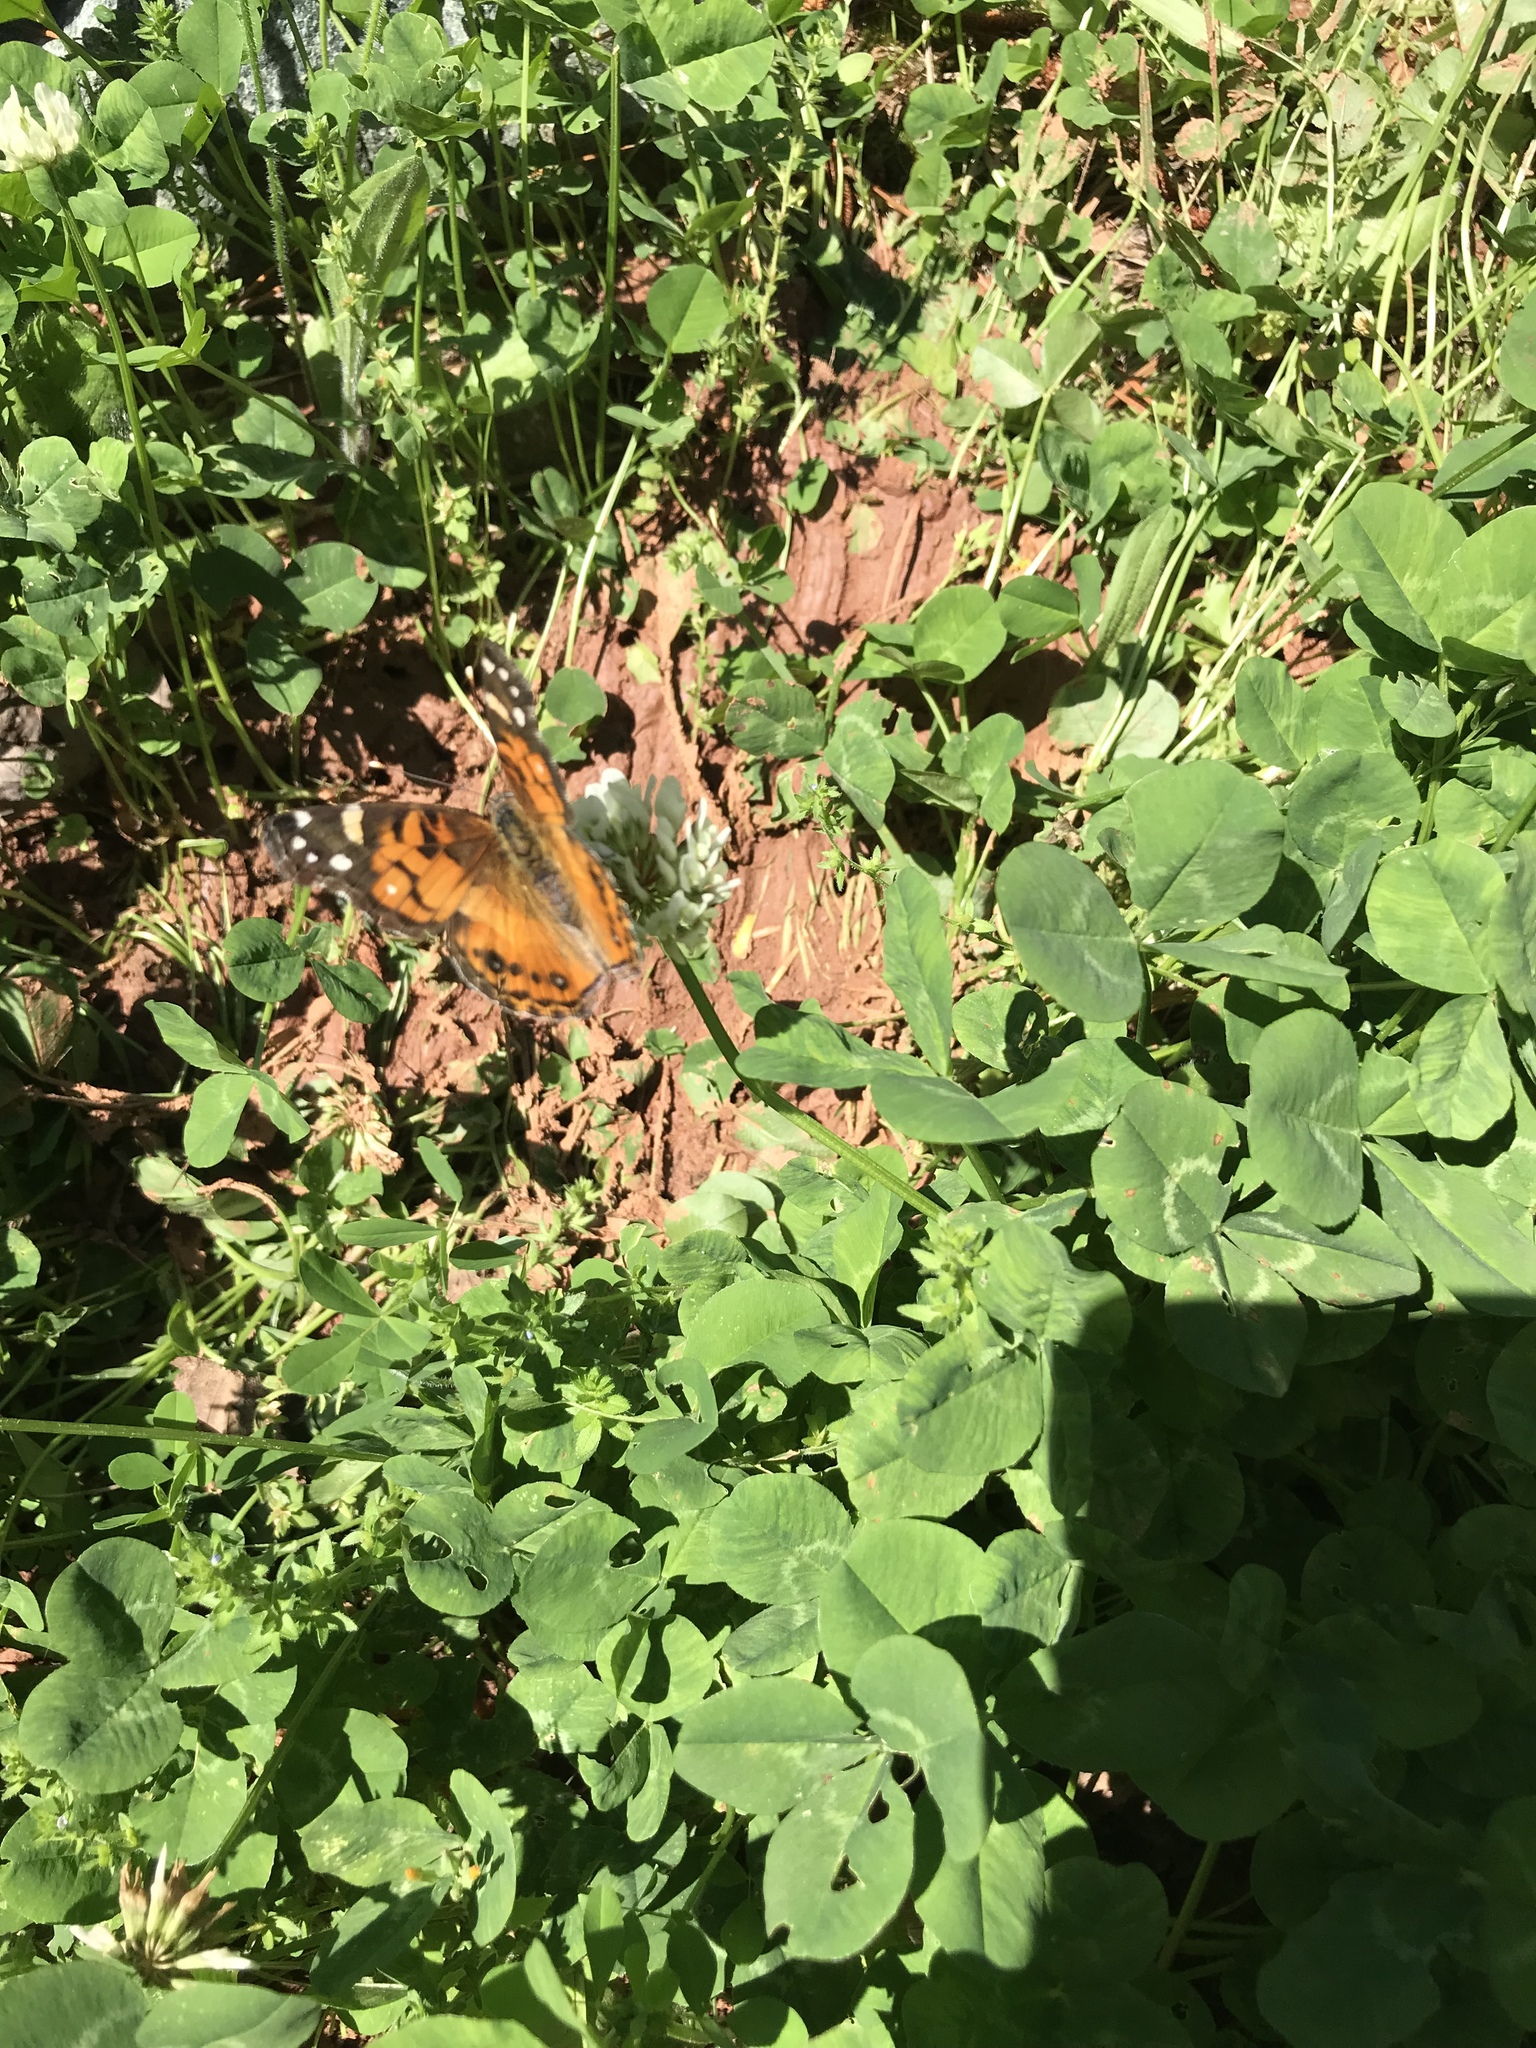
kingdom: Animalia
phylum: Arthropoda
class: Insecta
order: Lepidoptera
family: Nymphalidae
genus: Vanessa
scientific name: Vanessa virginiensis
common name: American lady
